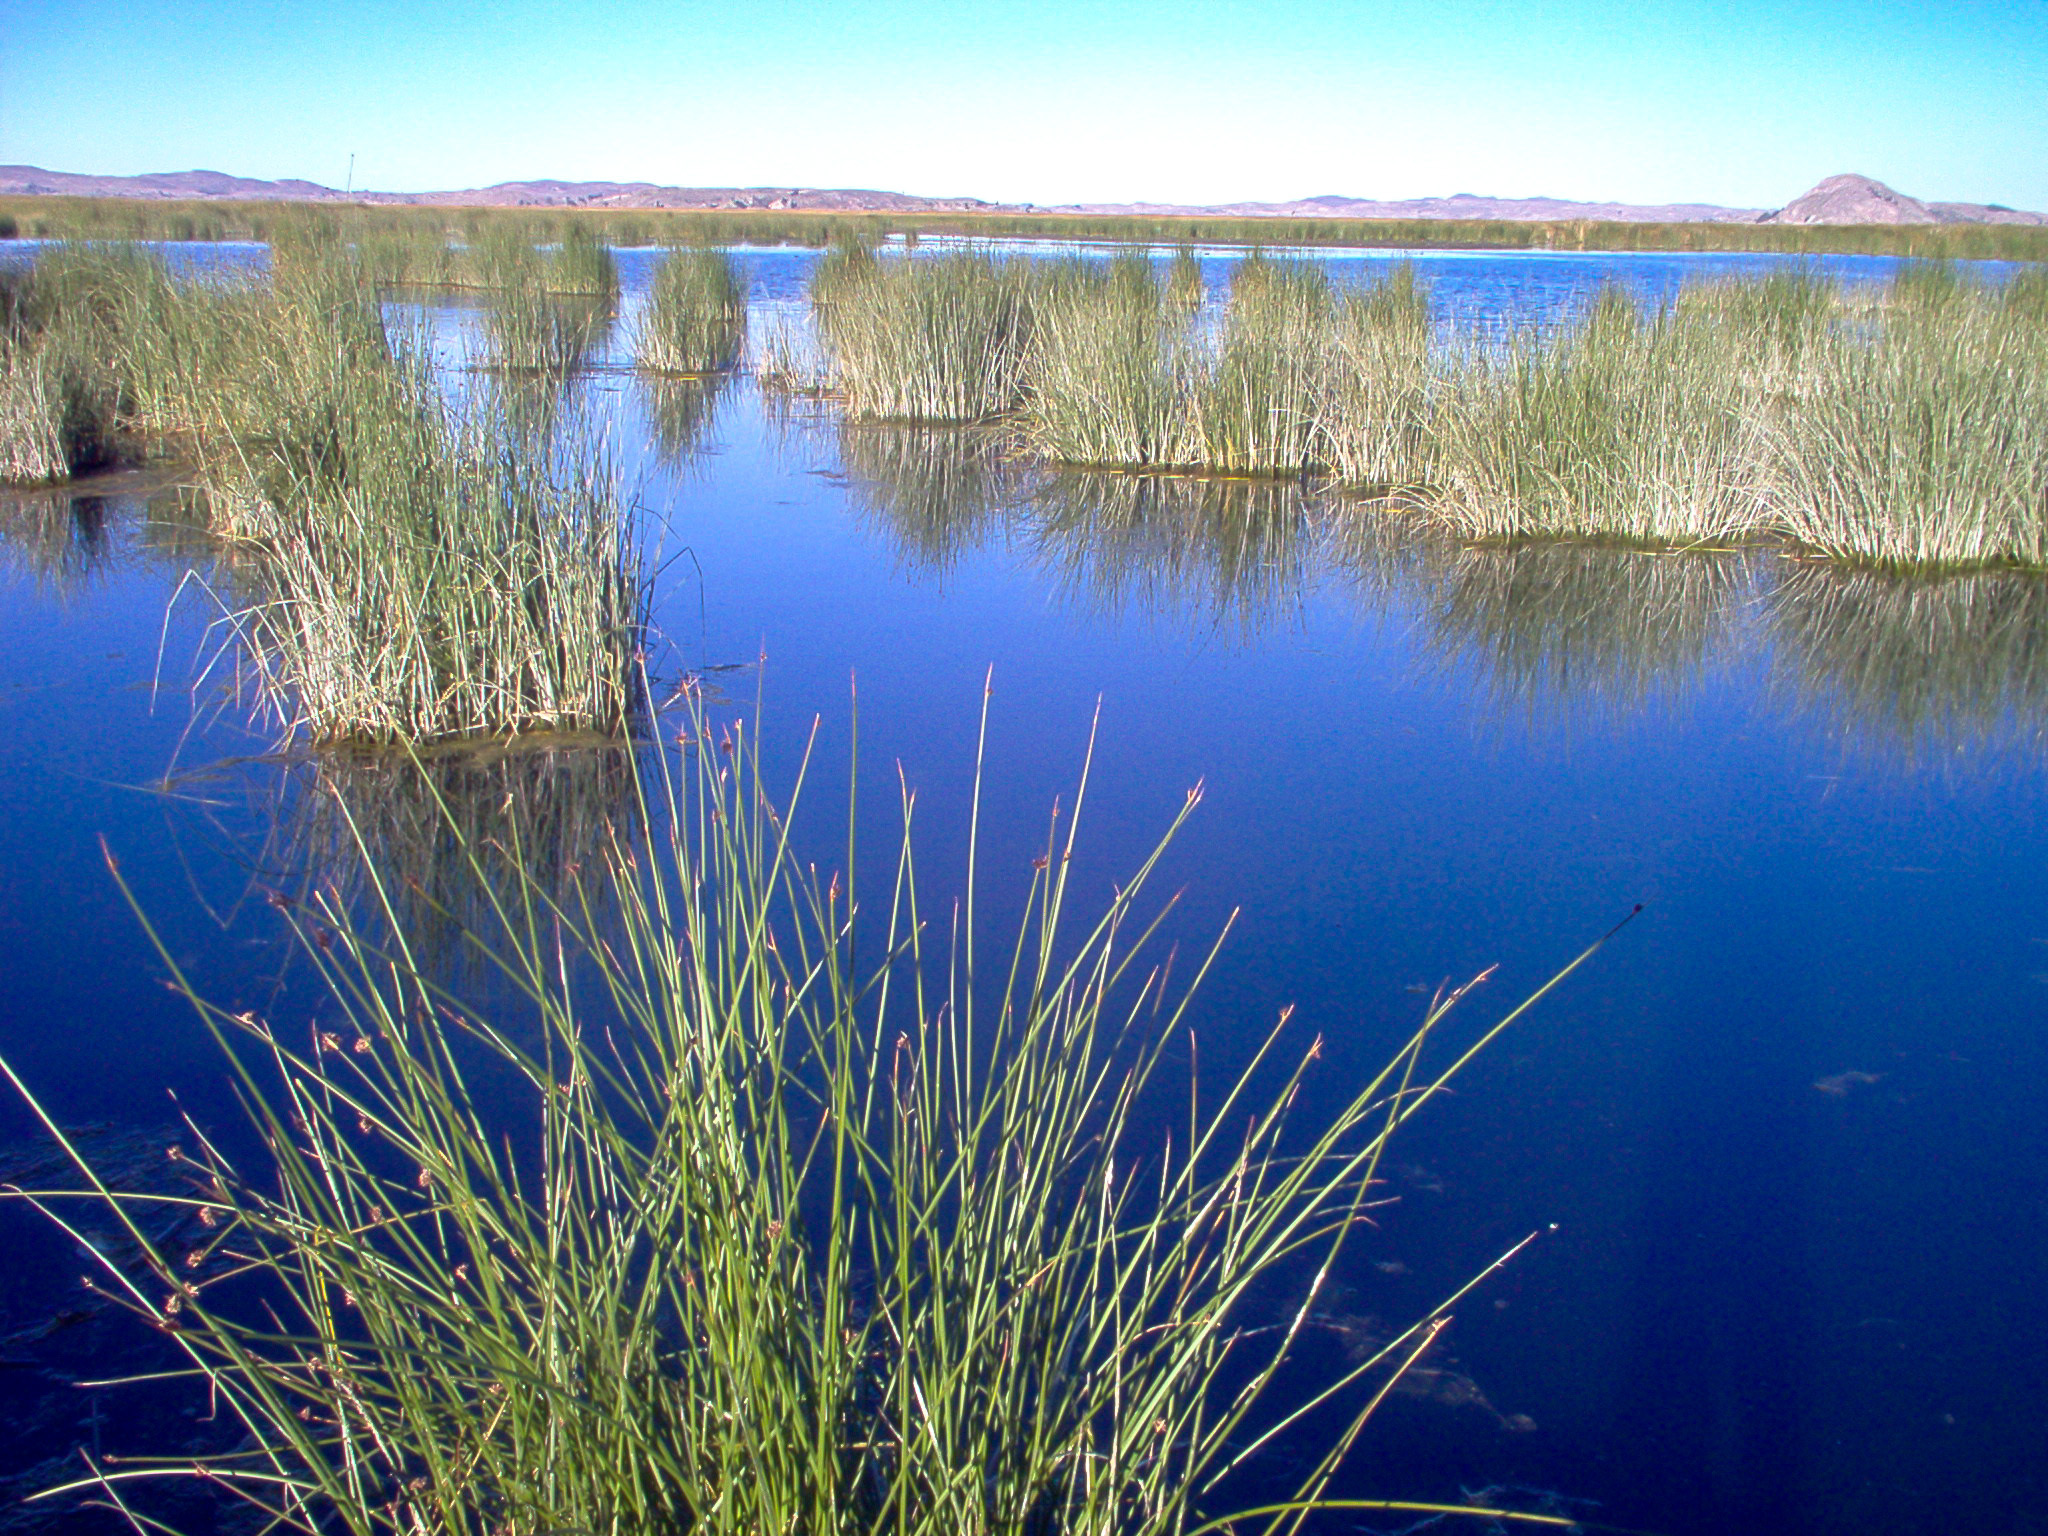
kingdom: Plantae
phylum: Tracheophyta
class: Liliopsida
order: Poales
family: Cyperaceae
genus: Schoenoplectus
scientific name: Schoenoplectus californicus
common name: California bulrush
